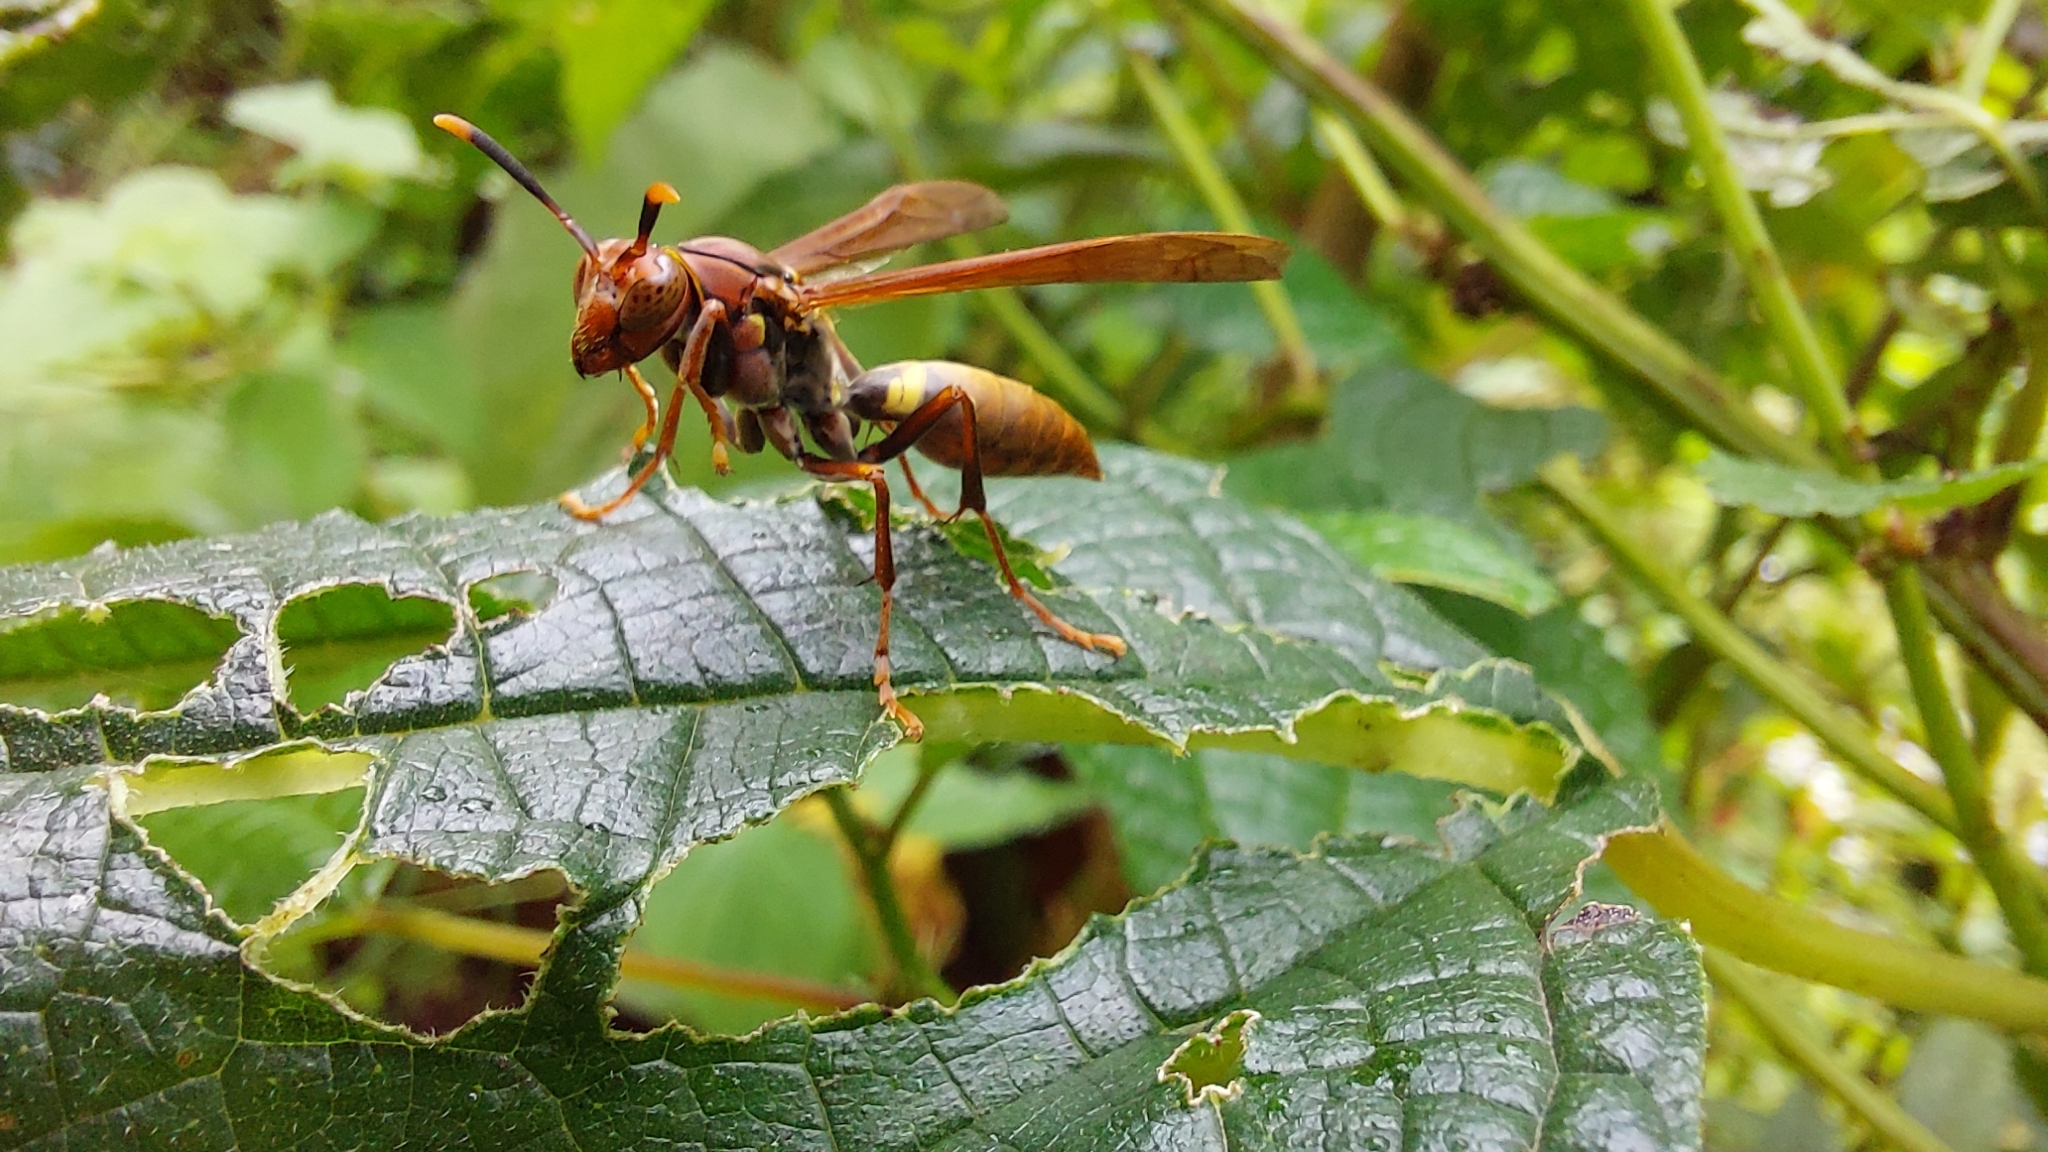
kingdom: Animalia
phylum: Arthropoda
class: Insecta
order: Hymenoptera
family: Pompilidae
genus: Aphanilopterus
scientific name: Aphanilopterus
